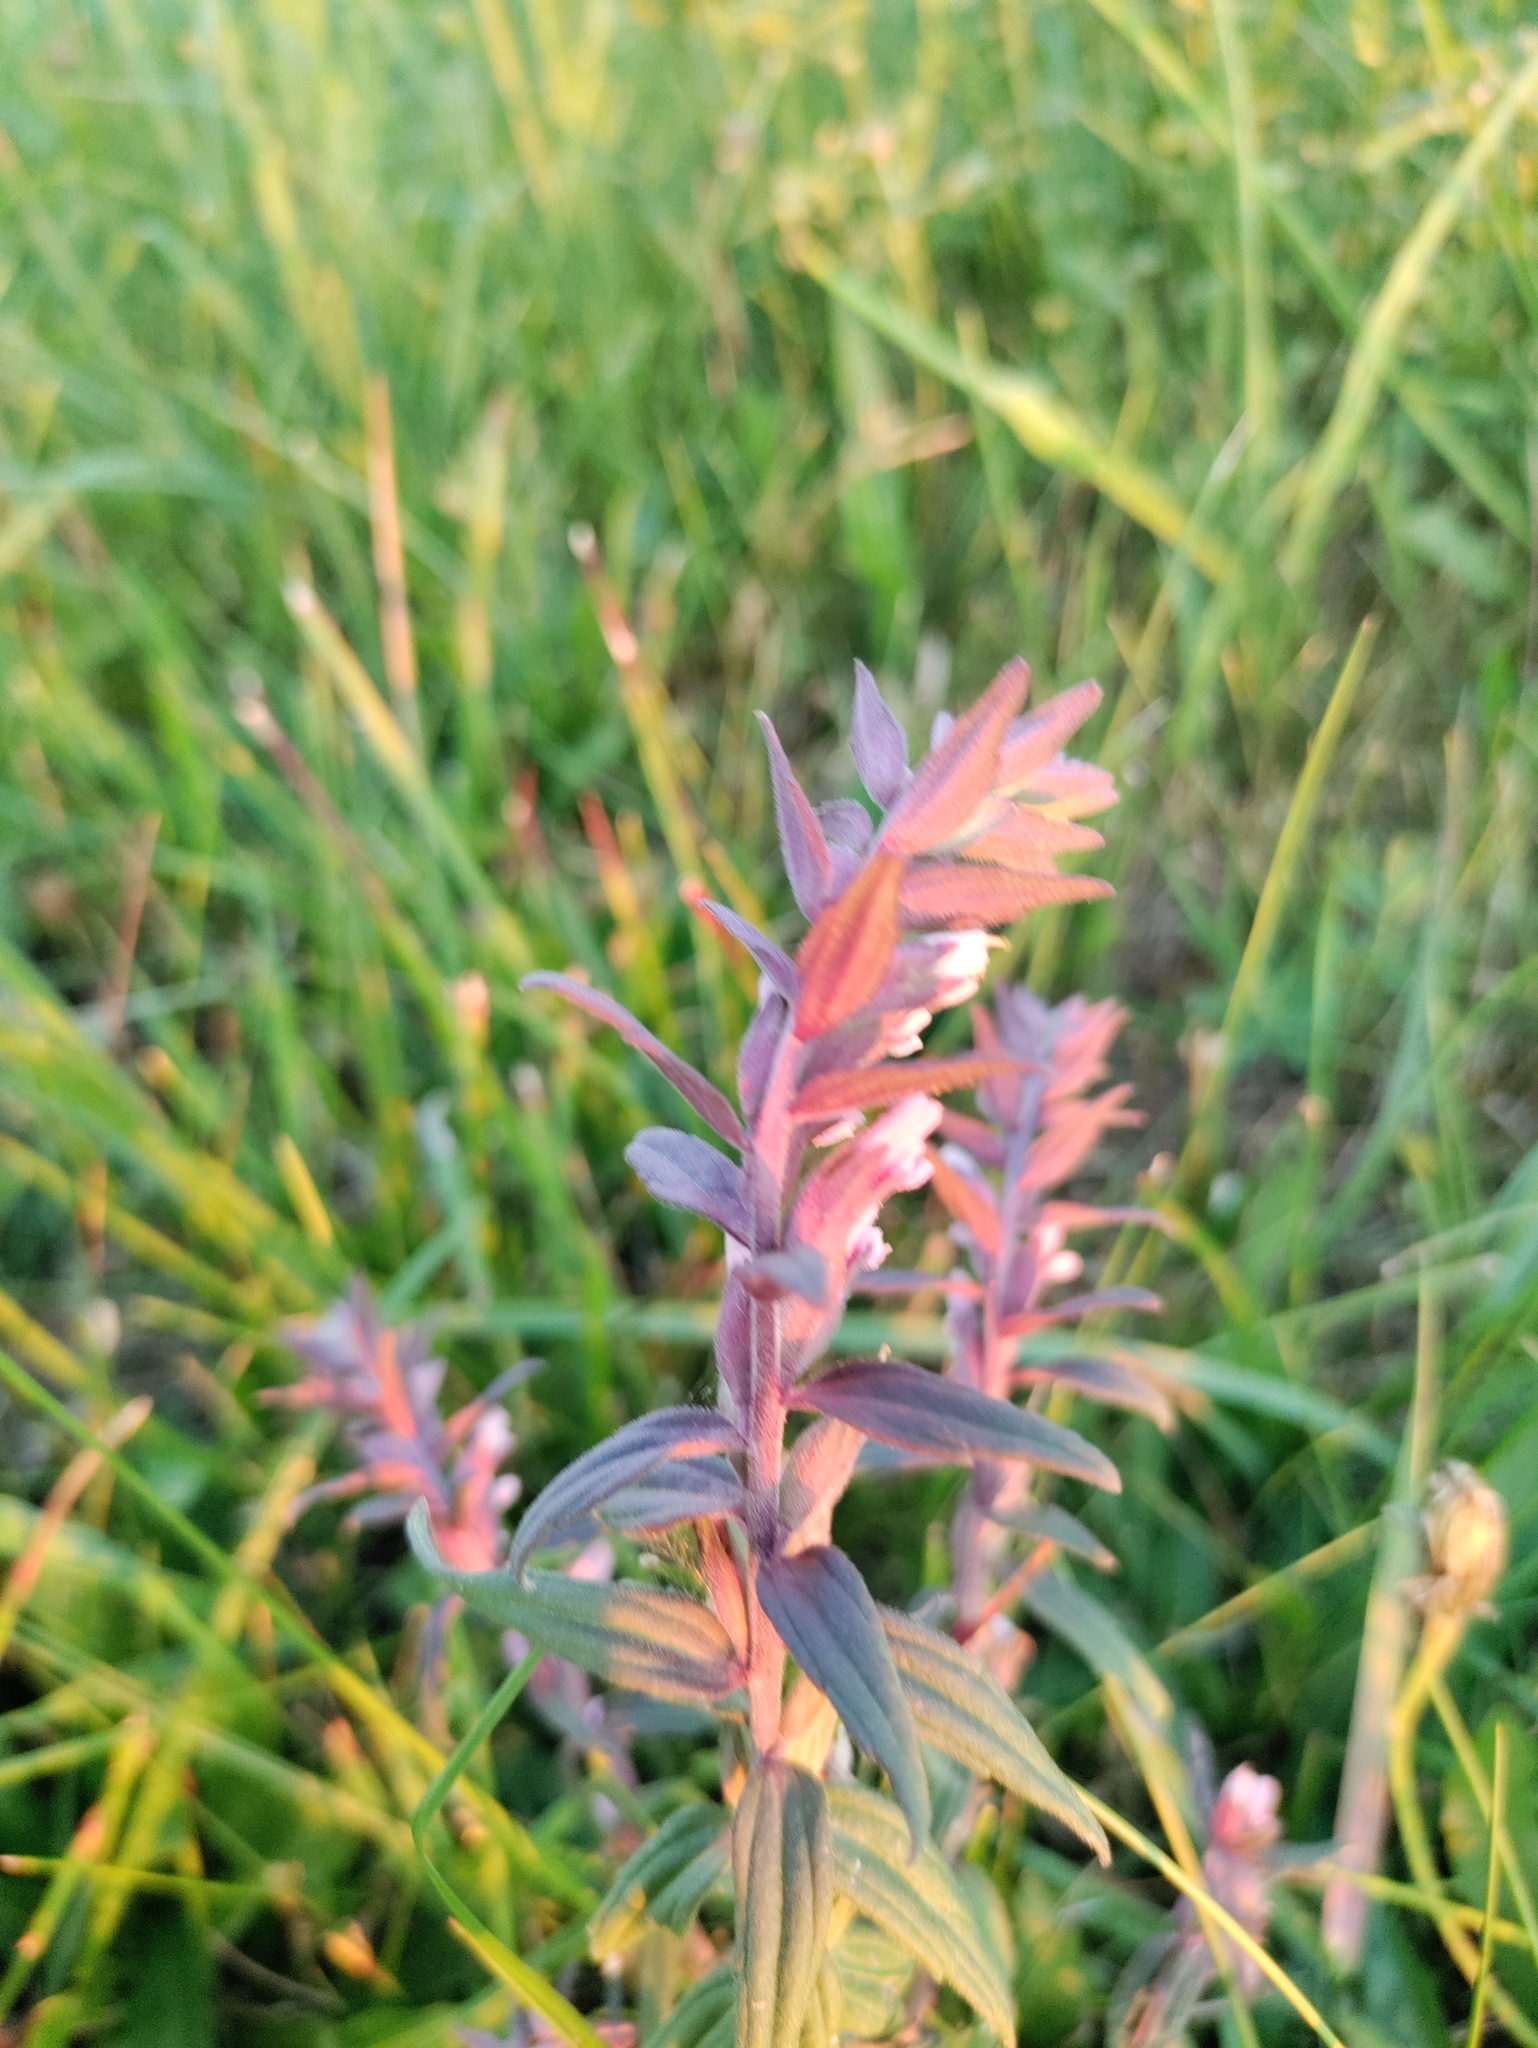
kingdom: Plantae
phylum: Tracheophyta
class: Magnoliopsida
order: Lamiales
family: Orobanchaceae
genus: Odontites
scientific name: Odontites vulgaris
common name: Broomrape
